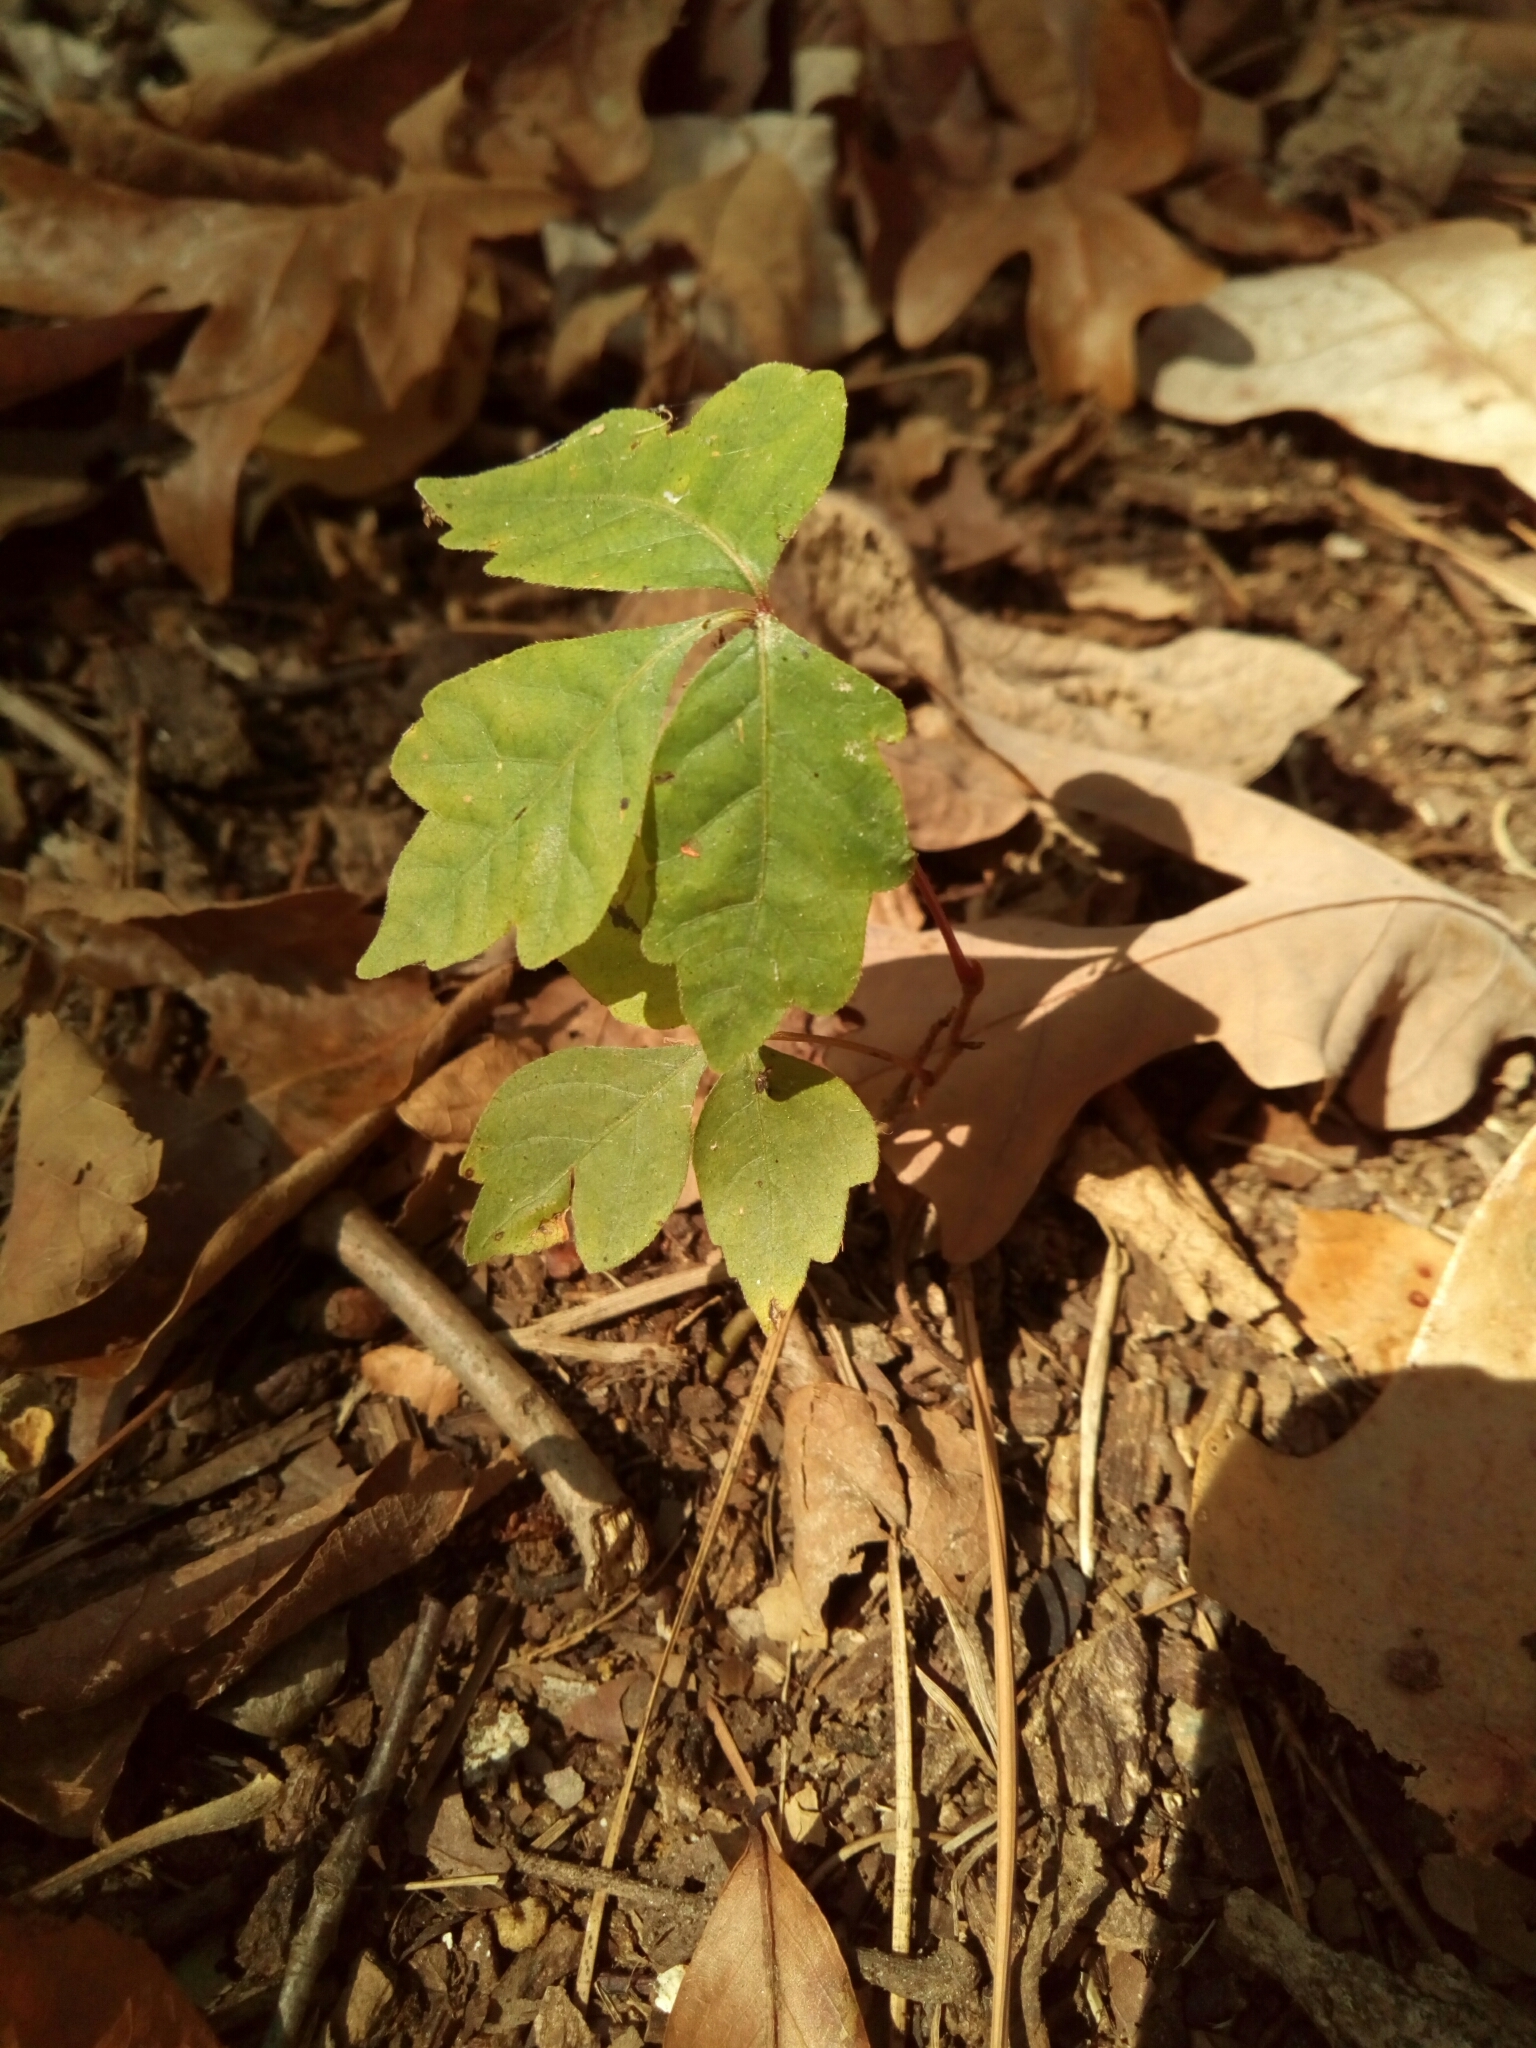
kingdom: Plantae
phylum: Tracheophyta
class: Magnoliopsida
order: Sapindales
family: Anacardiaceae
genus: Toxicodendron
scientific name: Toxicodendron radicans
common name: Poison ivy
